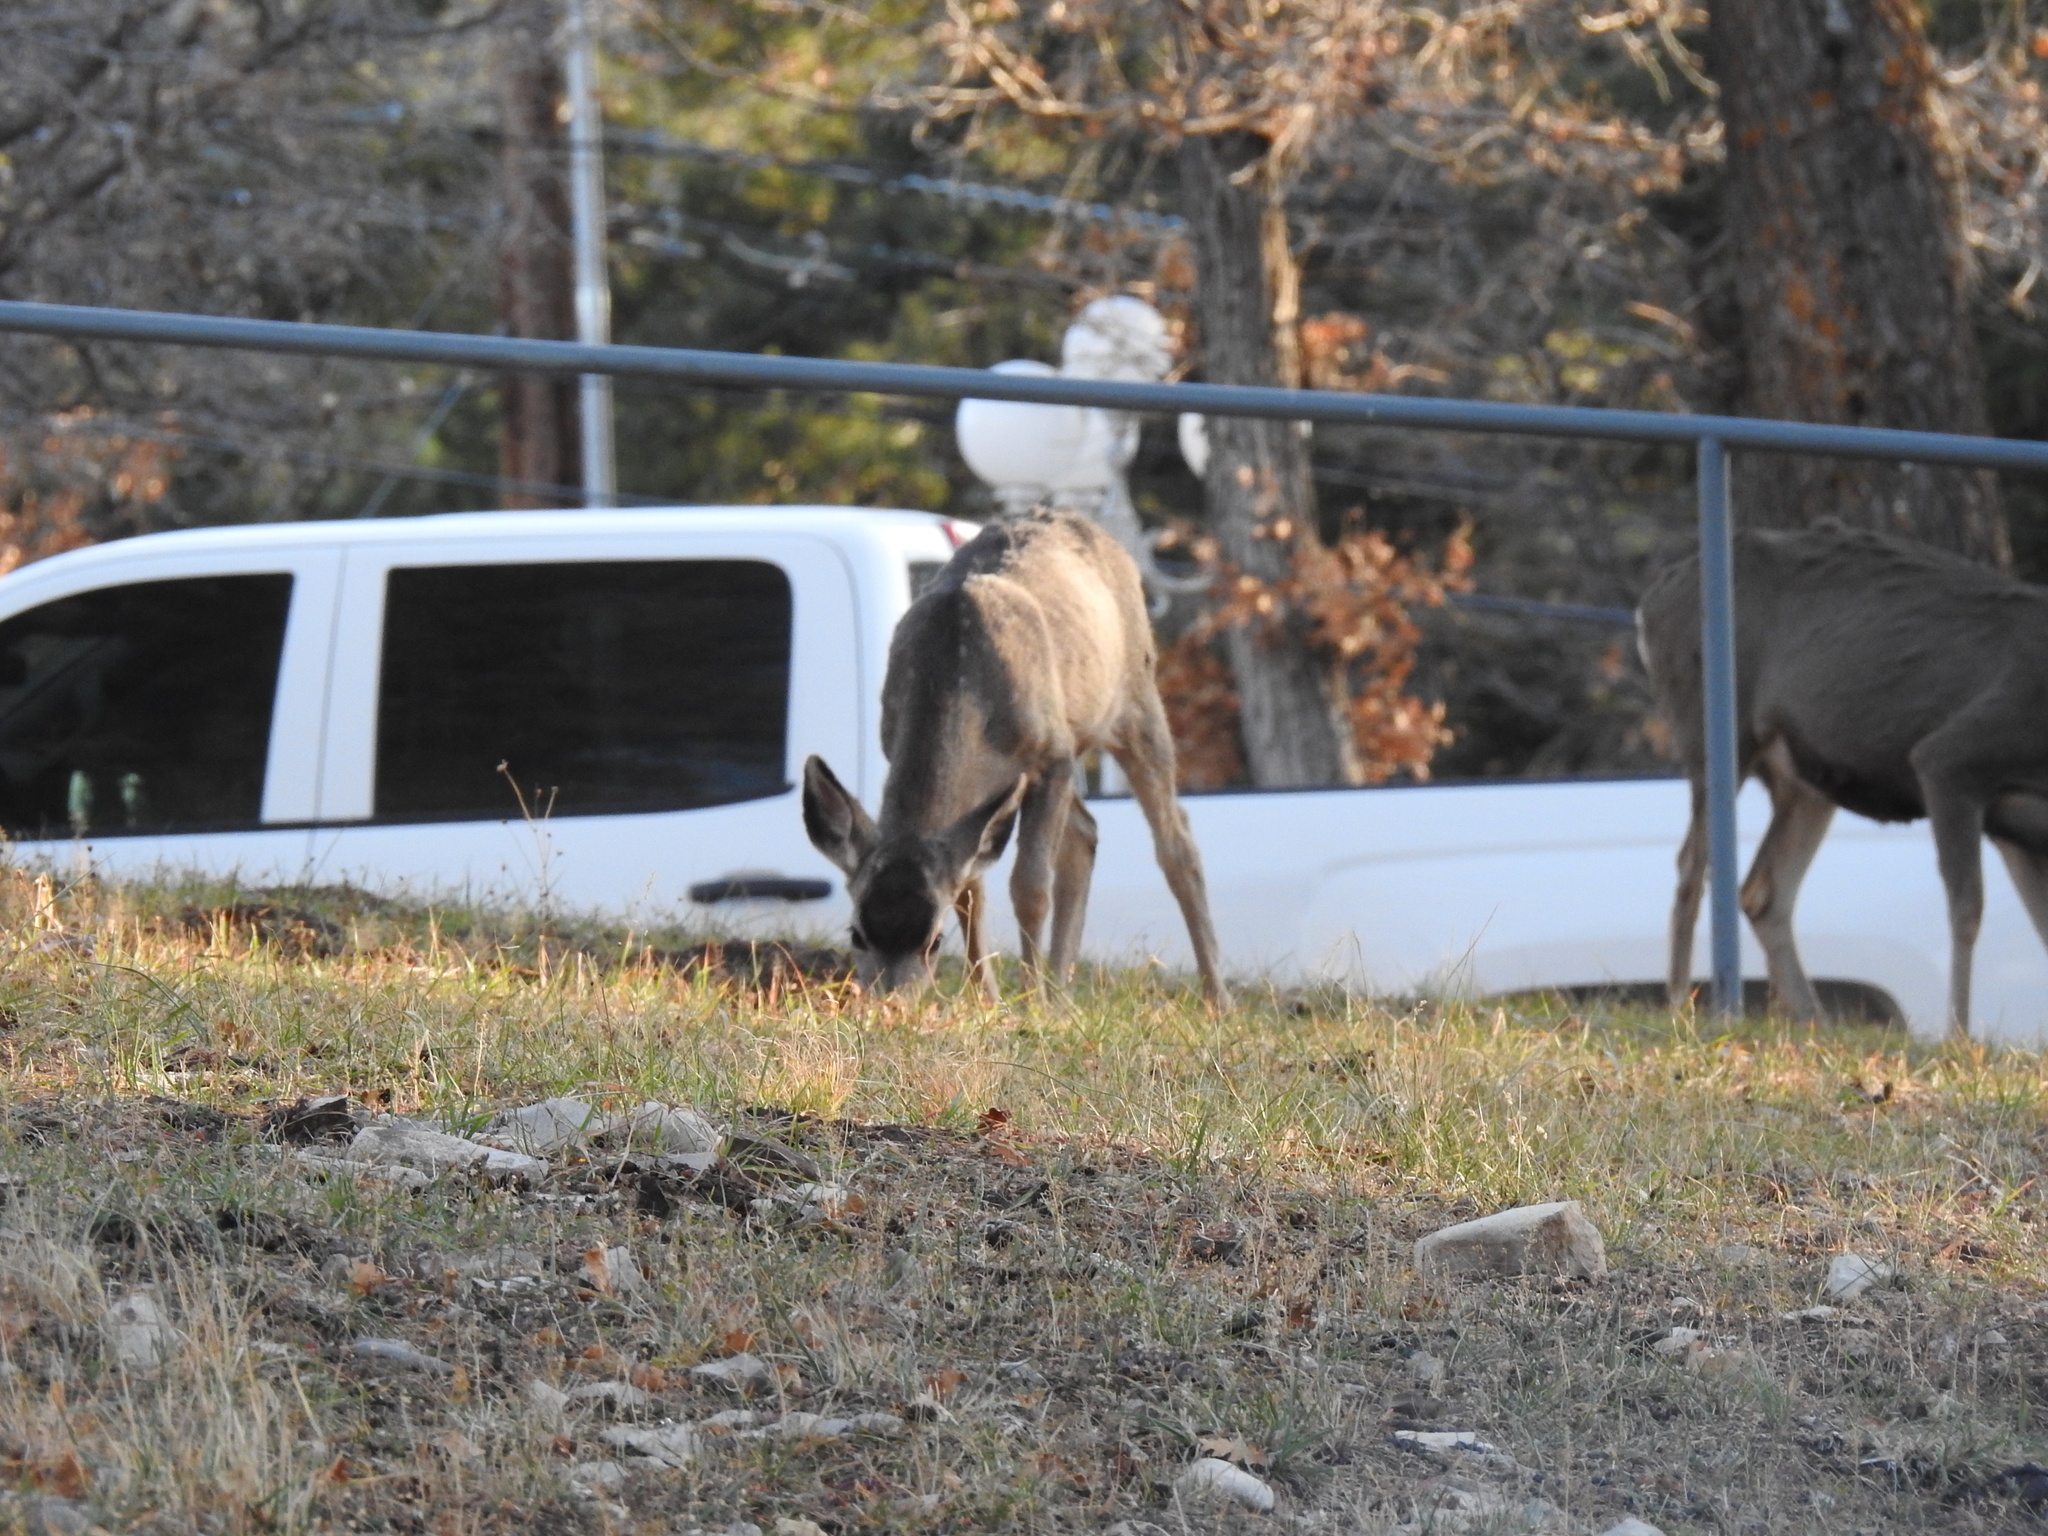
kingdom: Animalia
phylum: Chordata
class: Mammalia
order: Artiodactyla
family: Cervidae
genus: Odocoileus
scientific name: Odocoileus hemionus
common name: Mule deer
